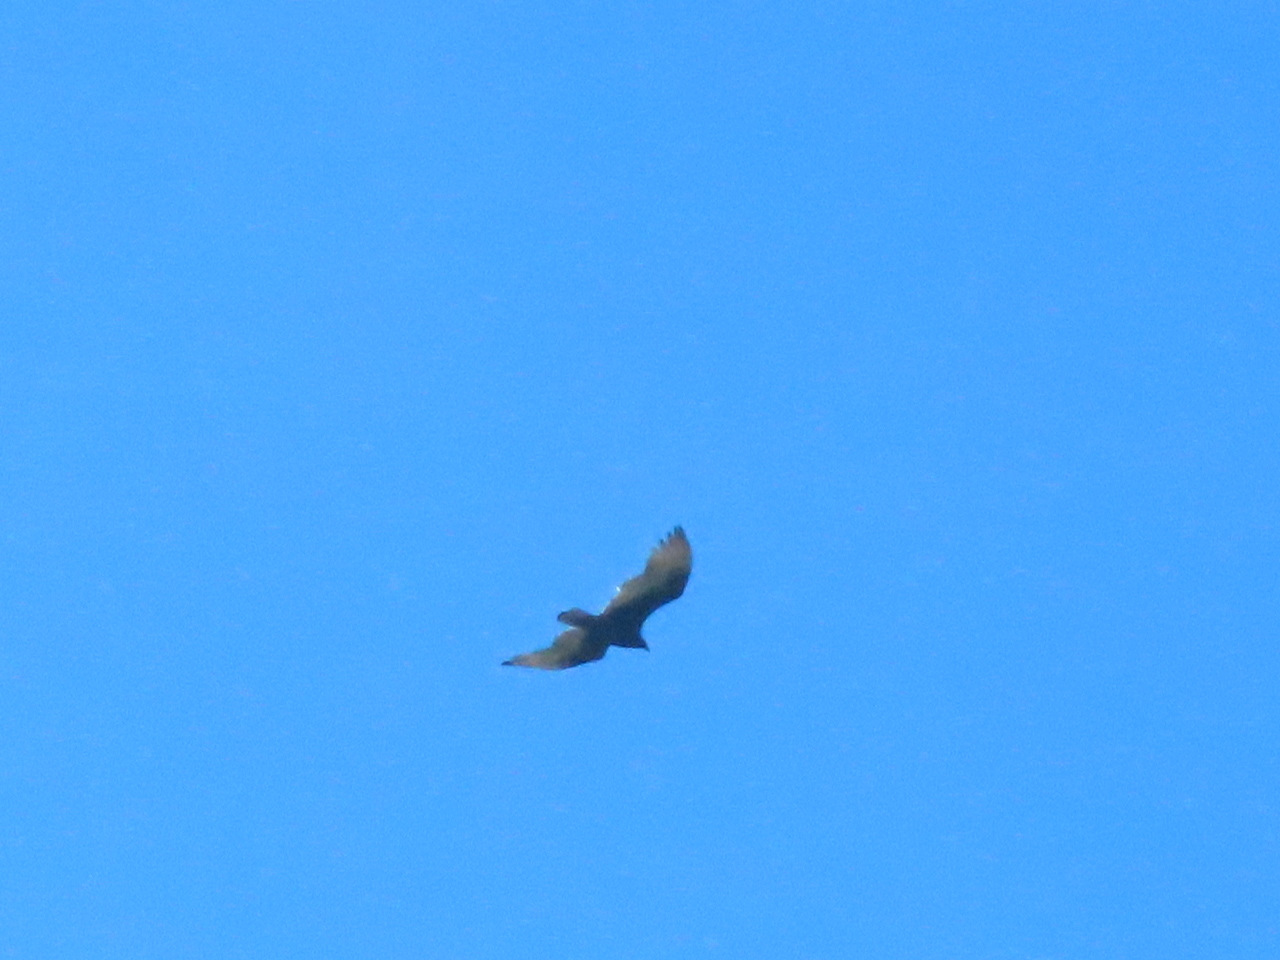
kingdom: Animalia
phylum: Chordata
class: Aves
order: Accipitriformes
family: Cathartidae
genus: Cathartes
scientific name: Cathartes aura
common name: Turkey vulture
